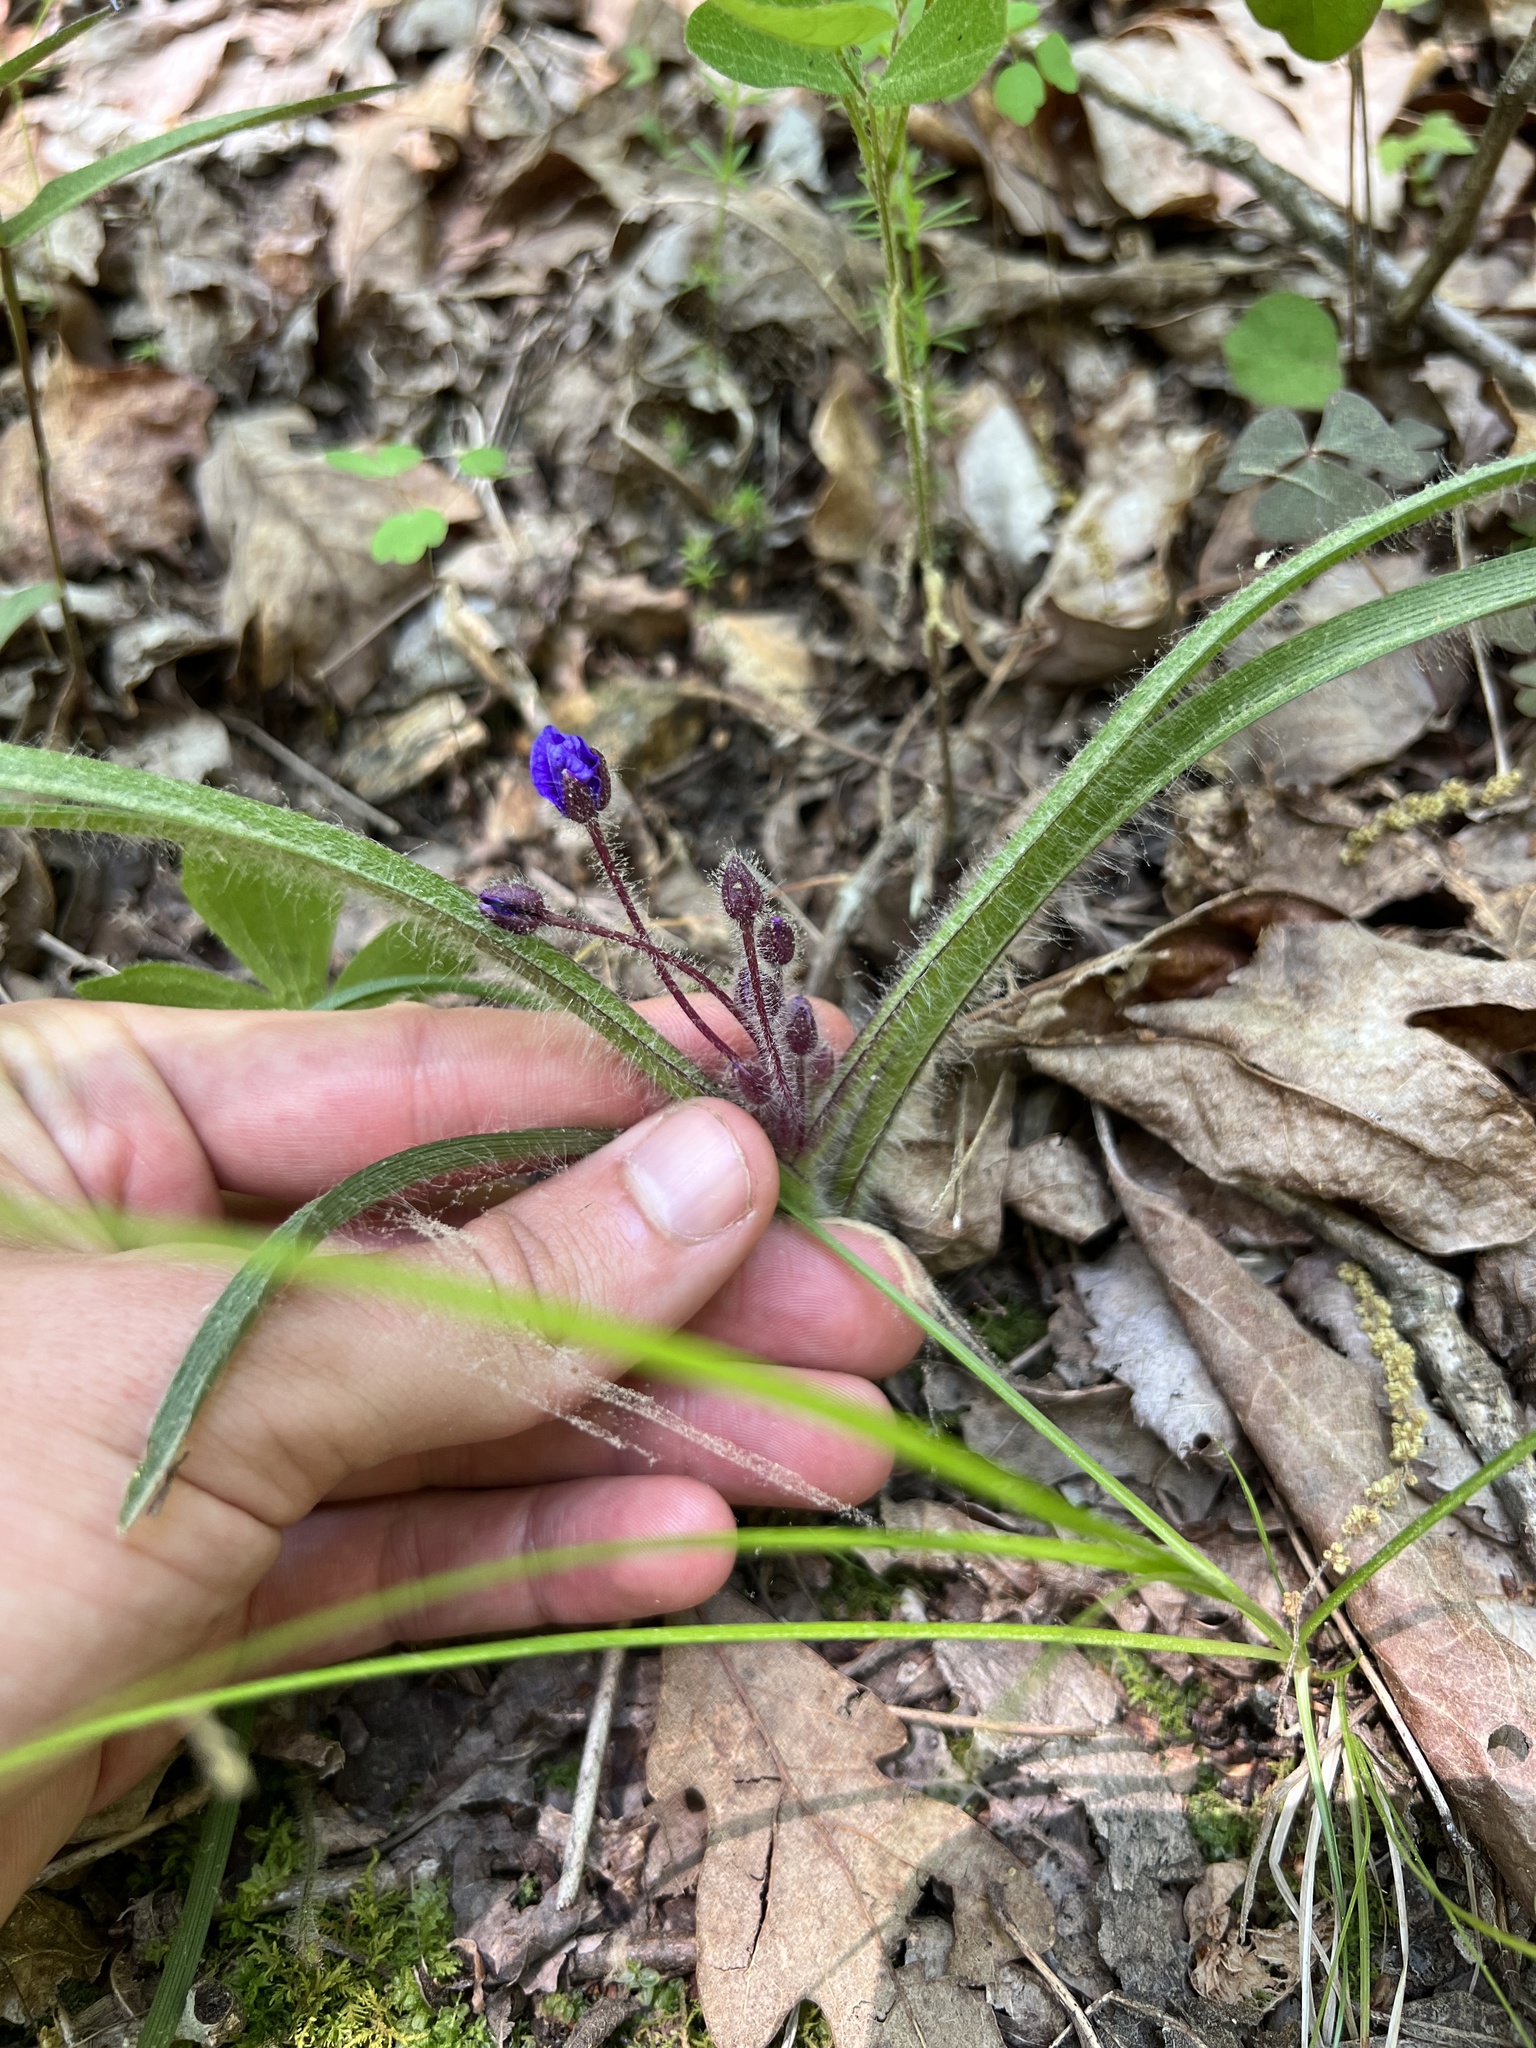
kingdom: Plantae
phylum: Tracheophyta
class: Liliopsida
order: Commelinales
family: Commelinaceae
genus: Tradescantia
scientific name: Tradescantia longipes
